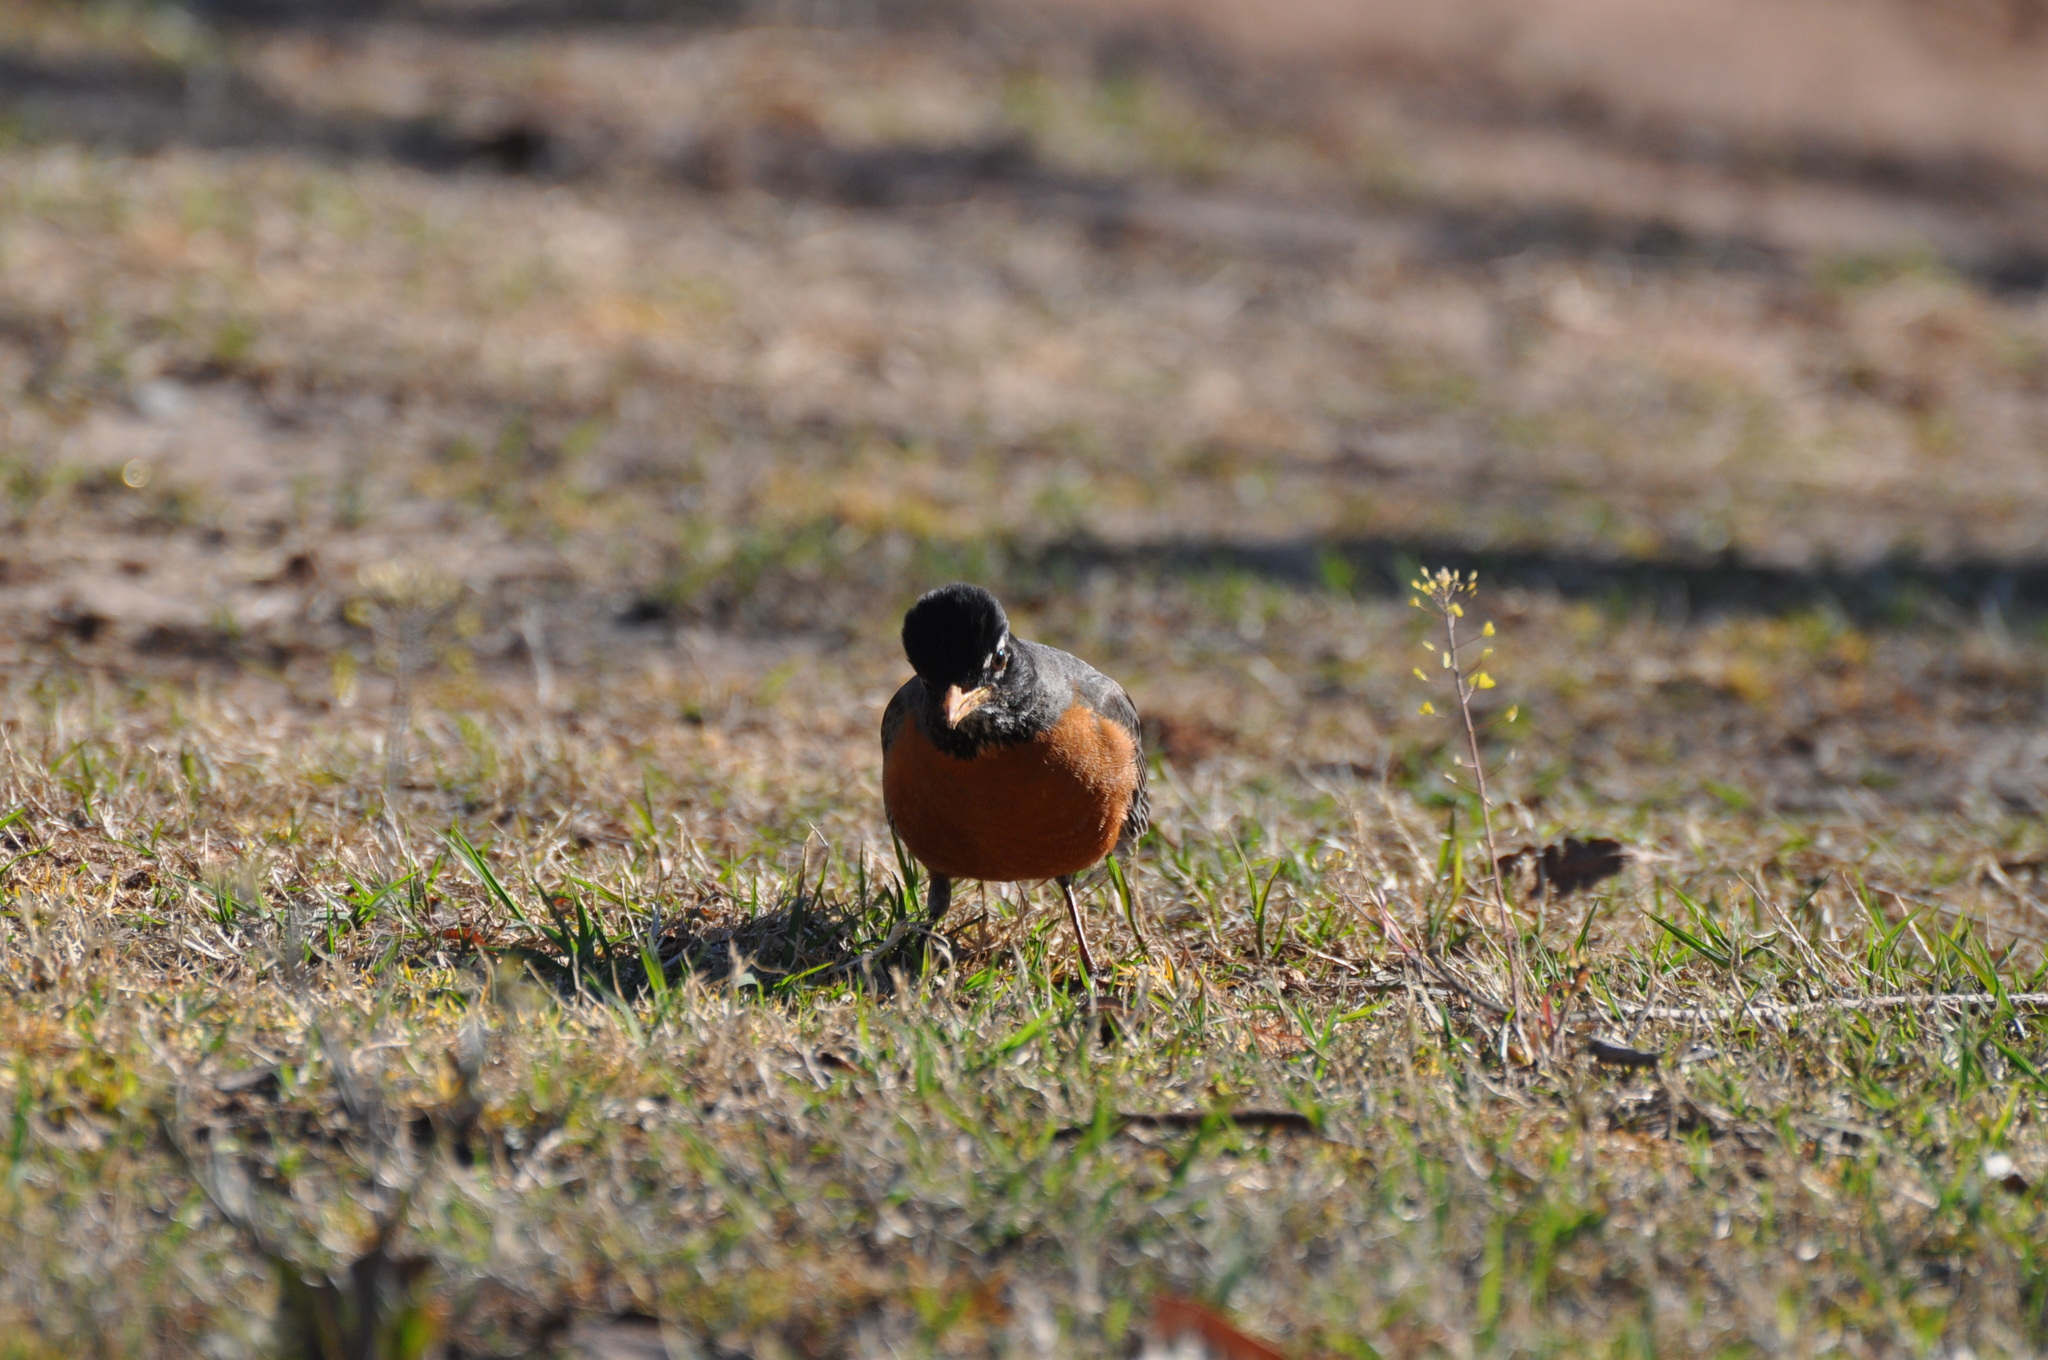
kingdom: Animalia
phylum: Chordata
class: Aves
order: Passeriformes
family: Turdidae
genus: Turdus
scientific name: Turdus migratorius
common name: American robin
